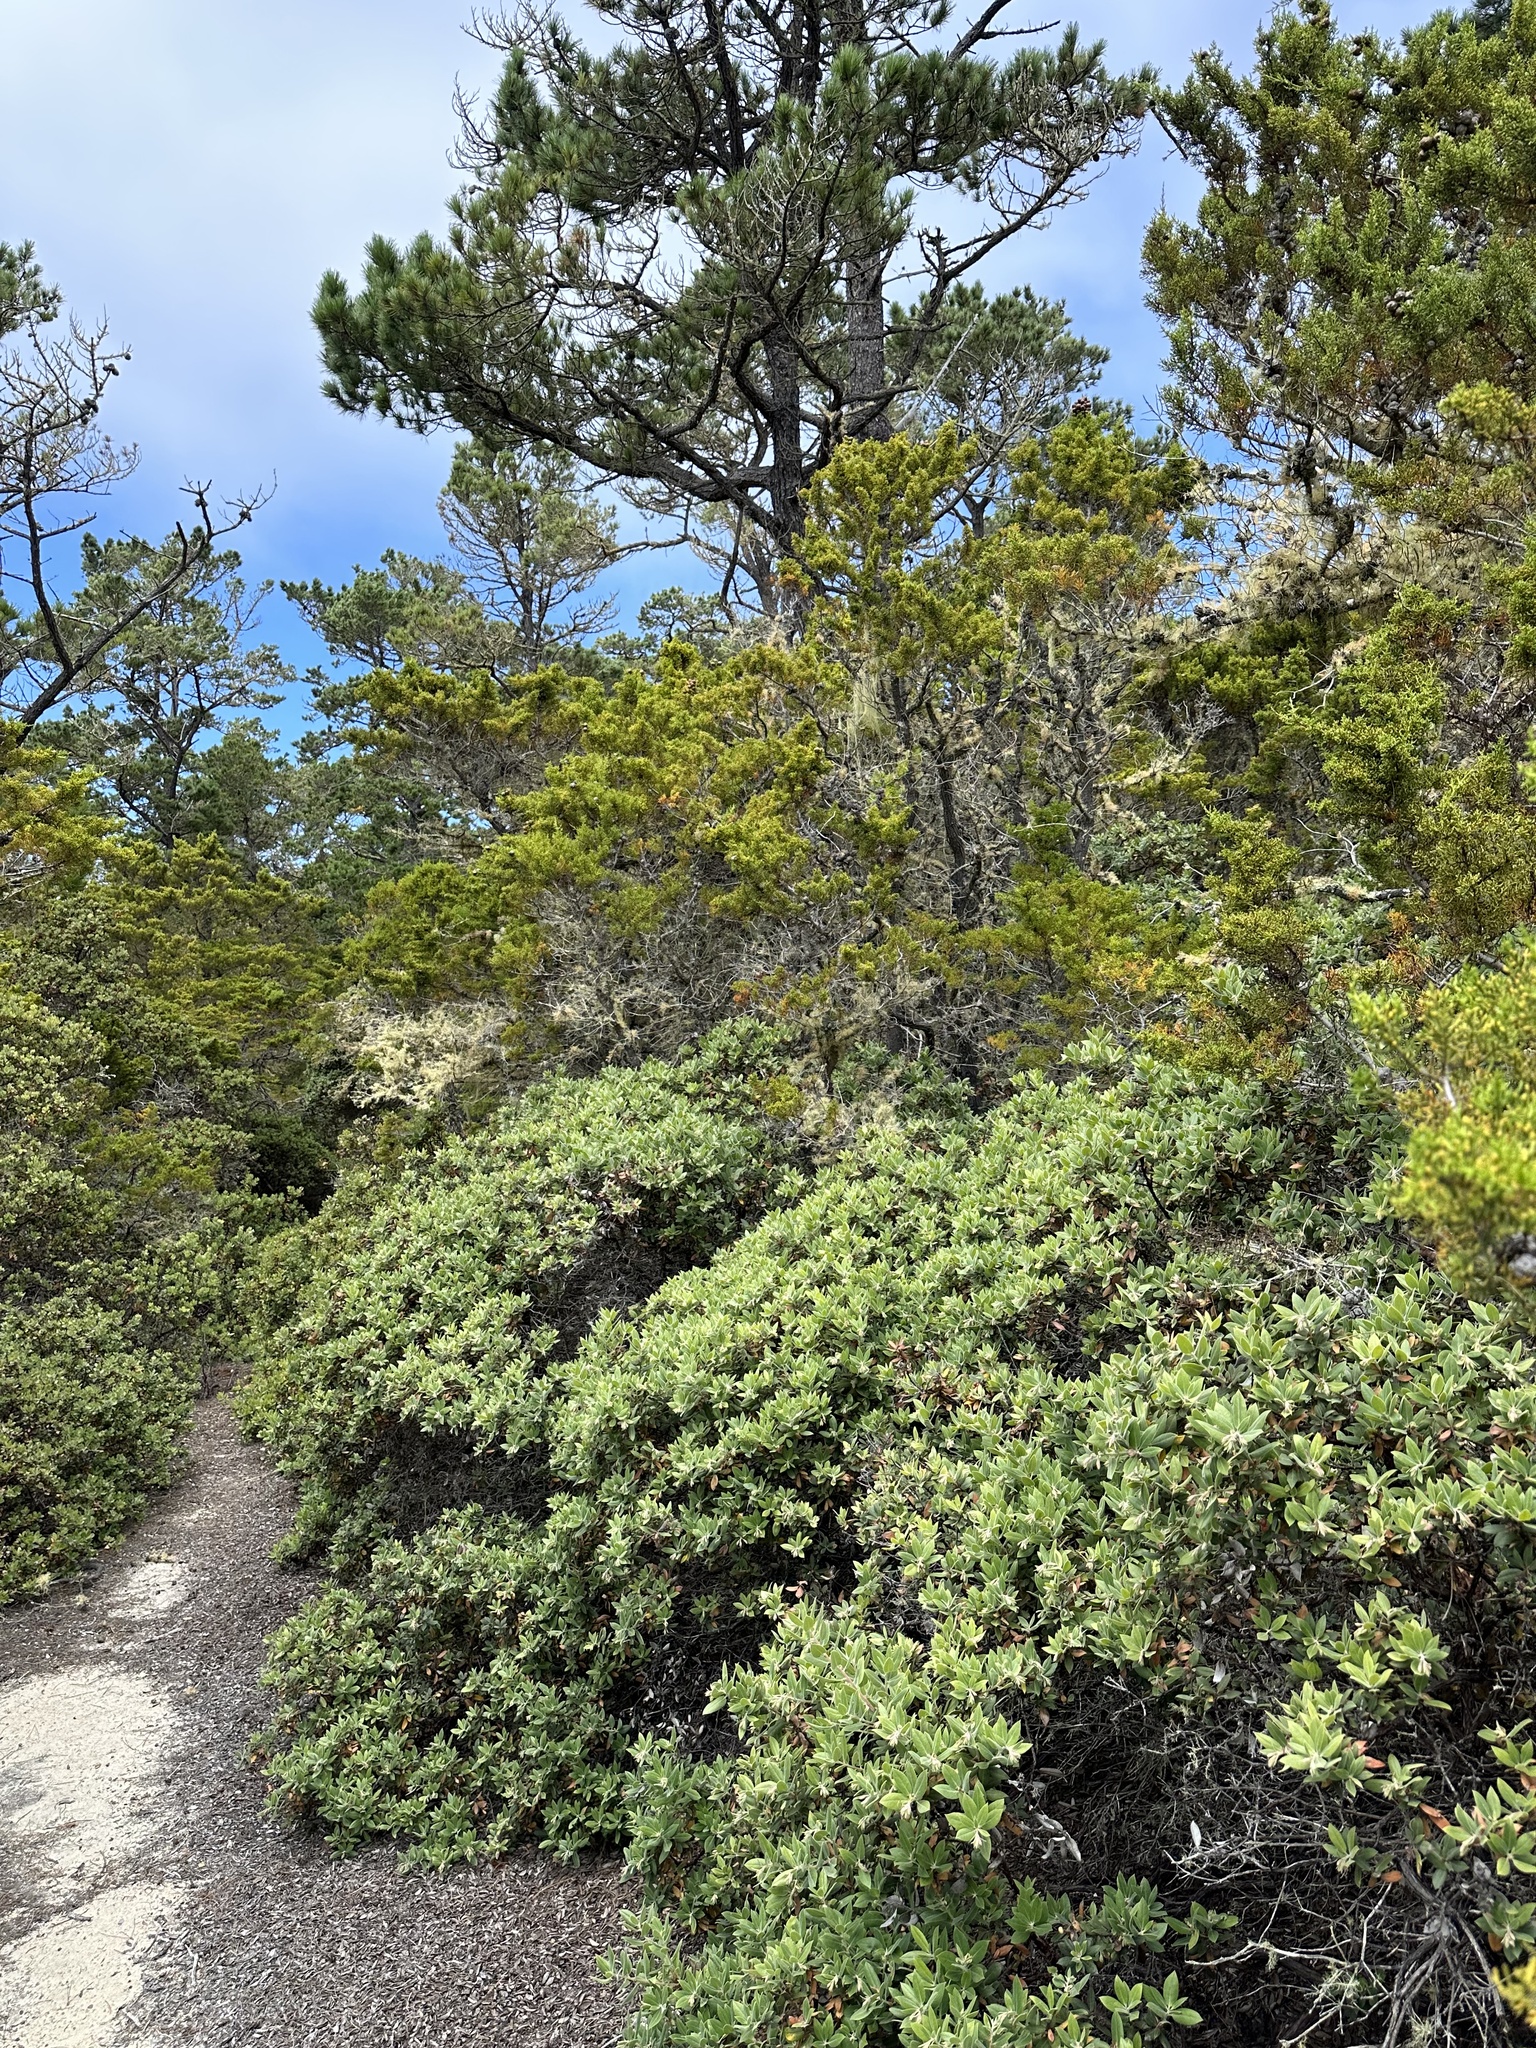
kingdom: Plantae
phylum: Tracheophyta
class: Pinopsida
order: Pinales
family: Cupressaceae
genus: Cupressus
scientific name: Cupressus goveniana
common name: Gowen cypress
